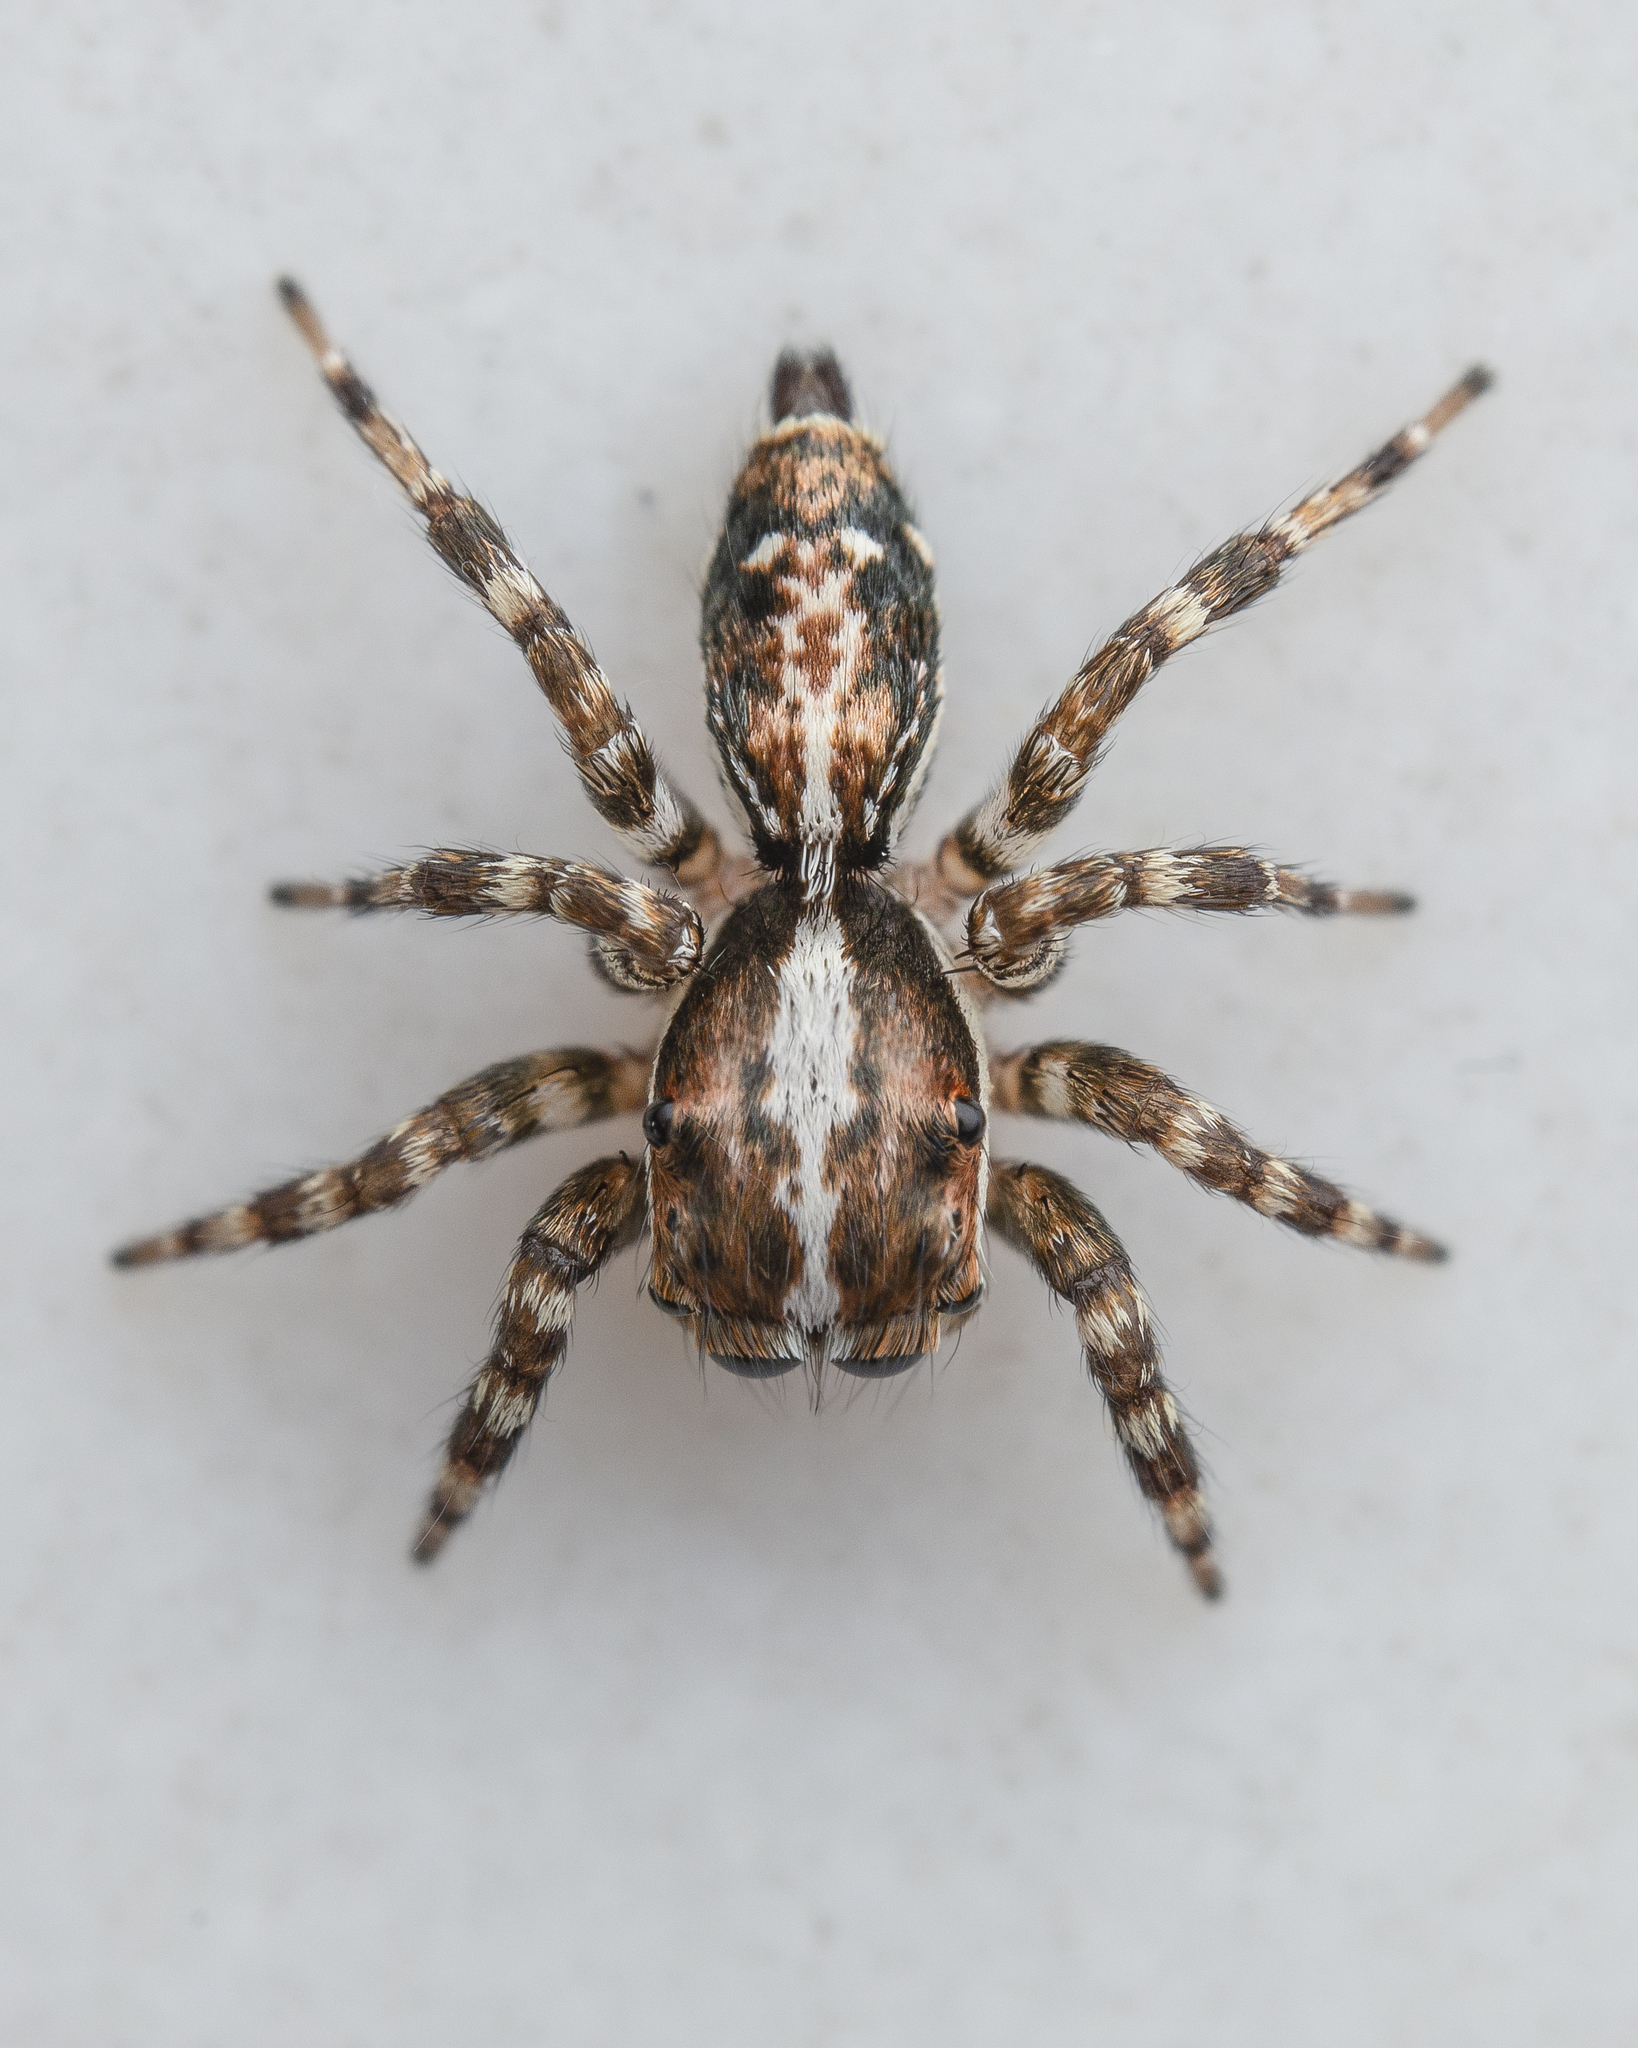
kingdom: Animalia
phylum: Arthropoda
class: Arachnida
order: Araneae
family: Salticidae
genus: Thyene
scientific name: Thyene orientalis
